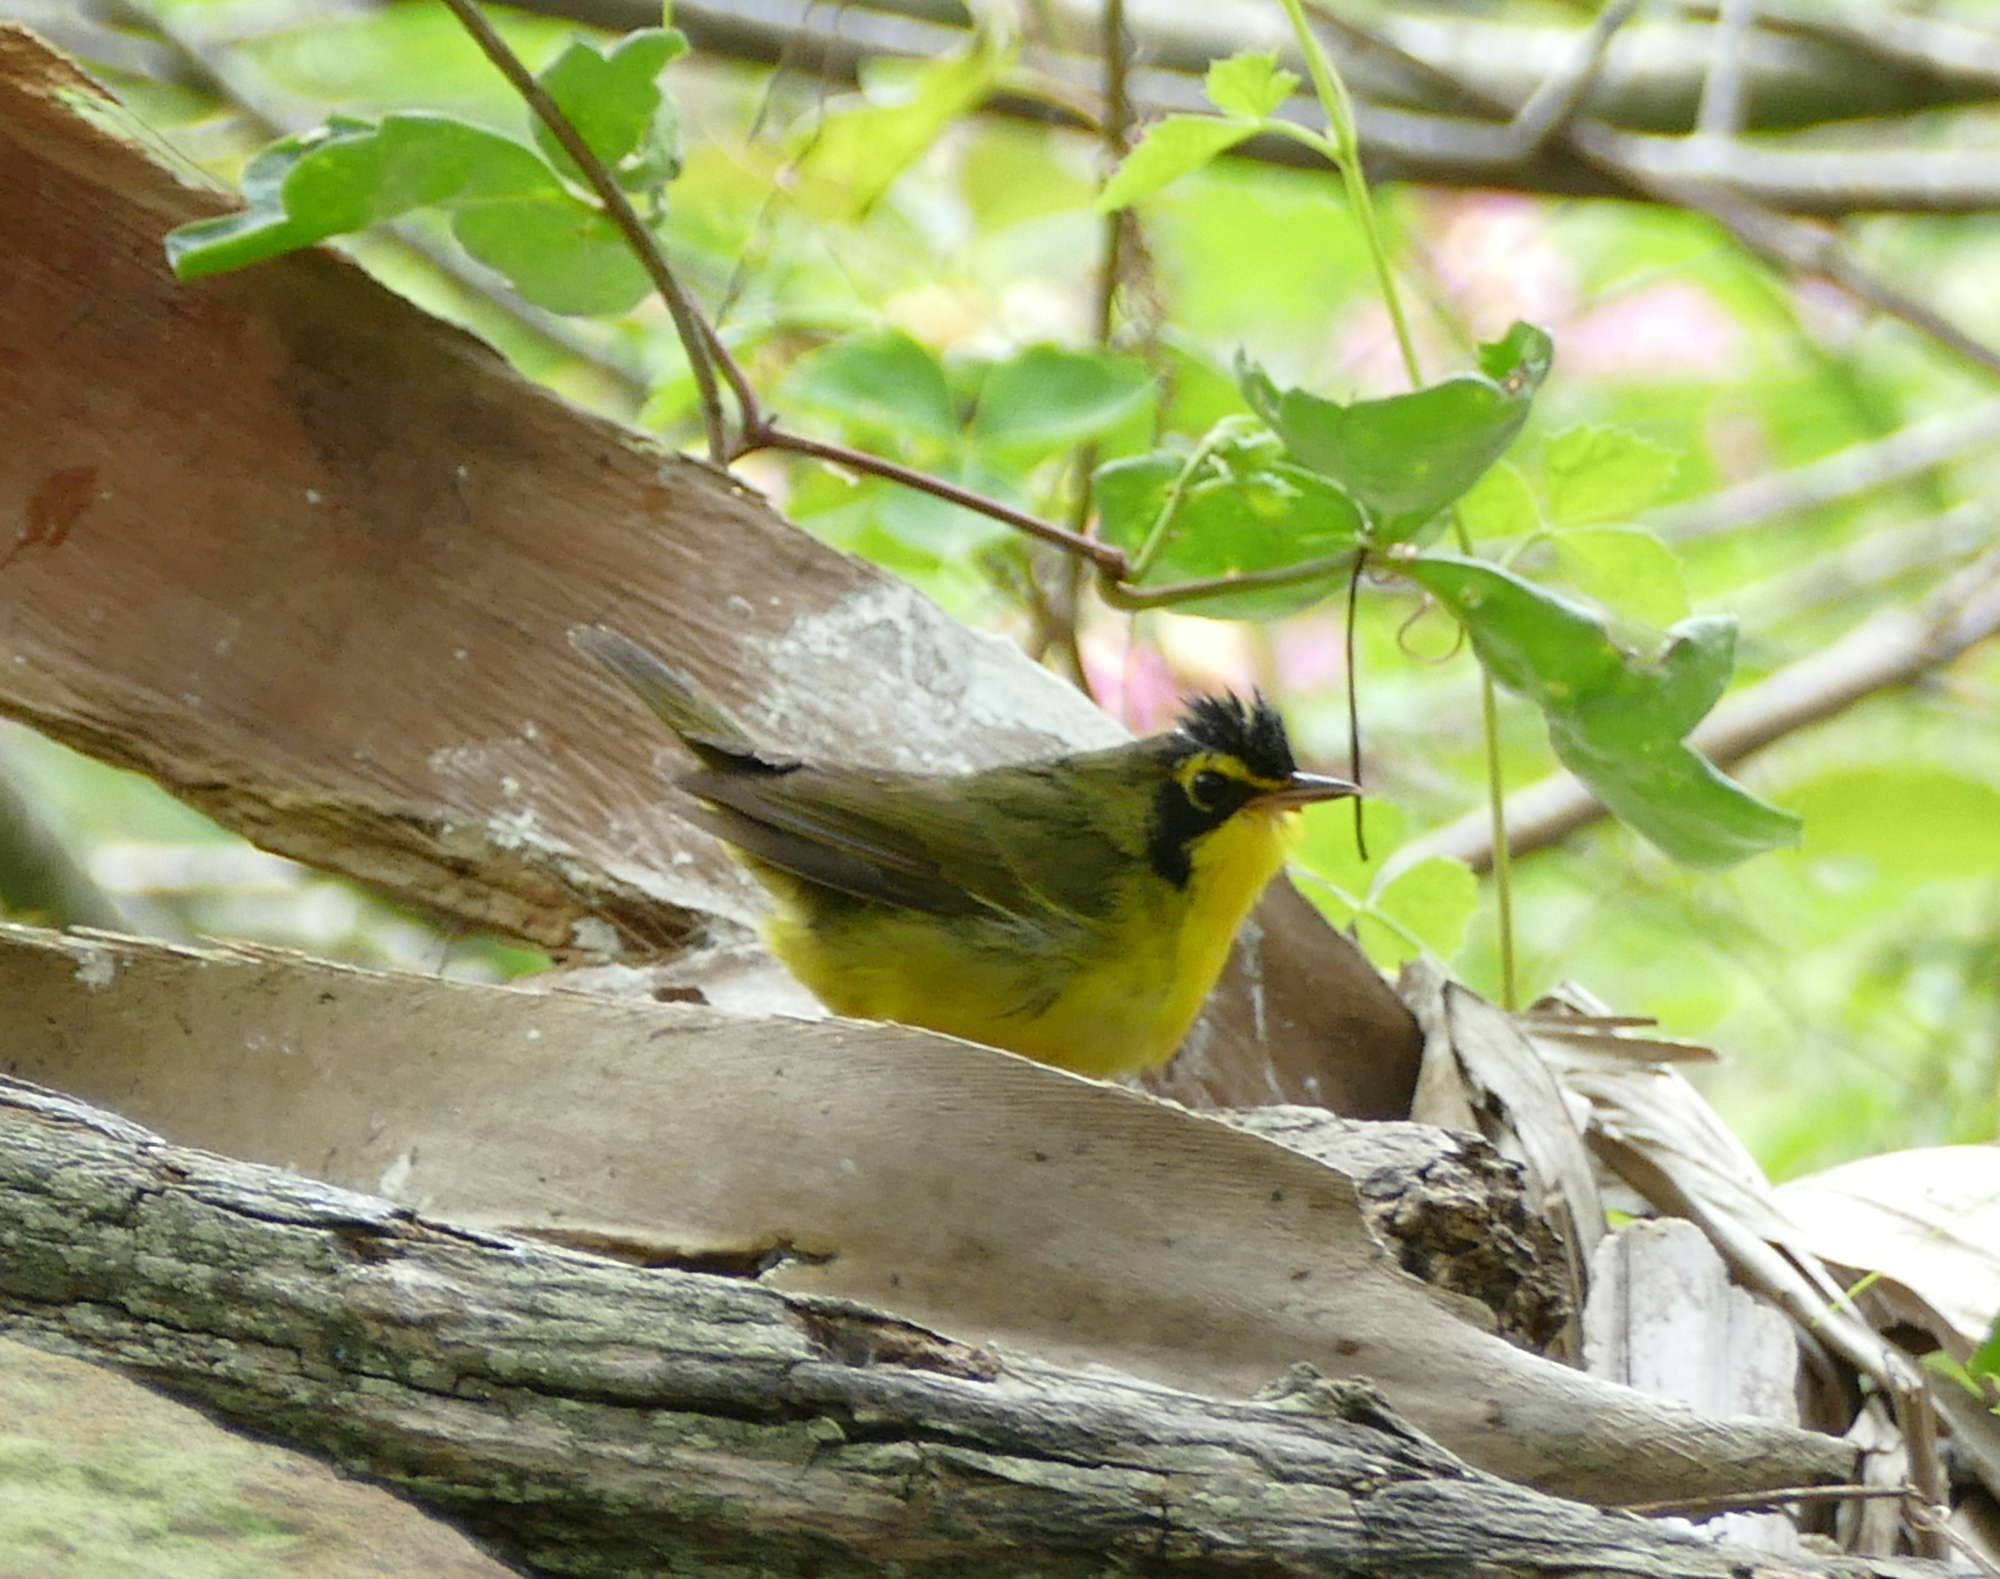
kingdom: Animalia
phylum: Chordata
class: Aves
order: Passeriformes
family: Parulidae
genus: Geothlypis
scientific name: Geothlypis formosa
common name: Kentucky warbler
